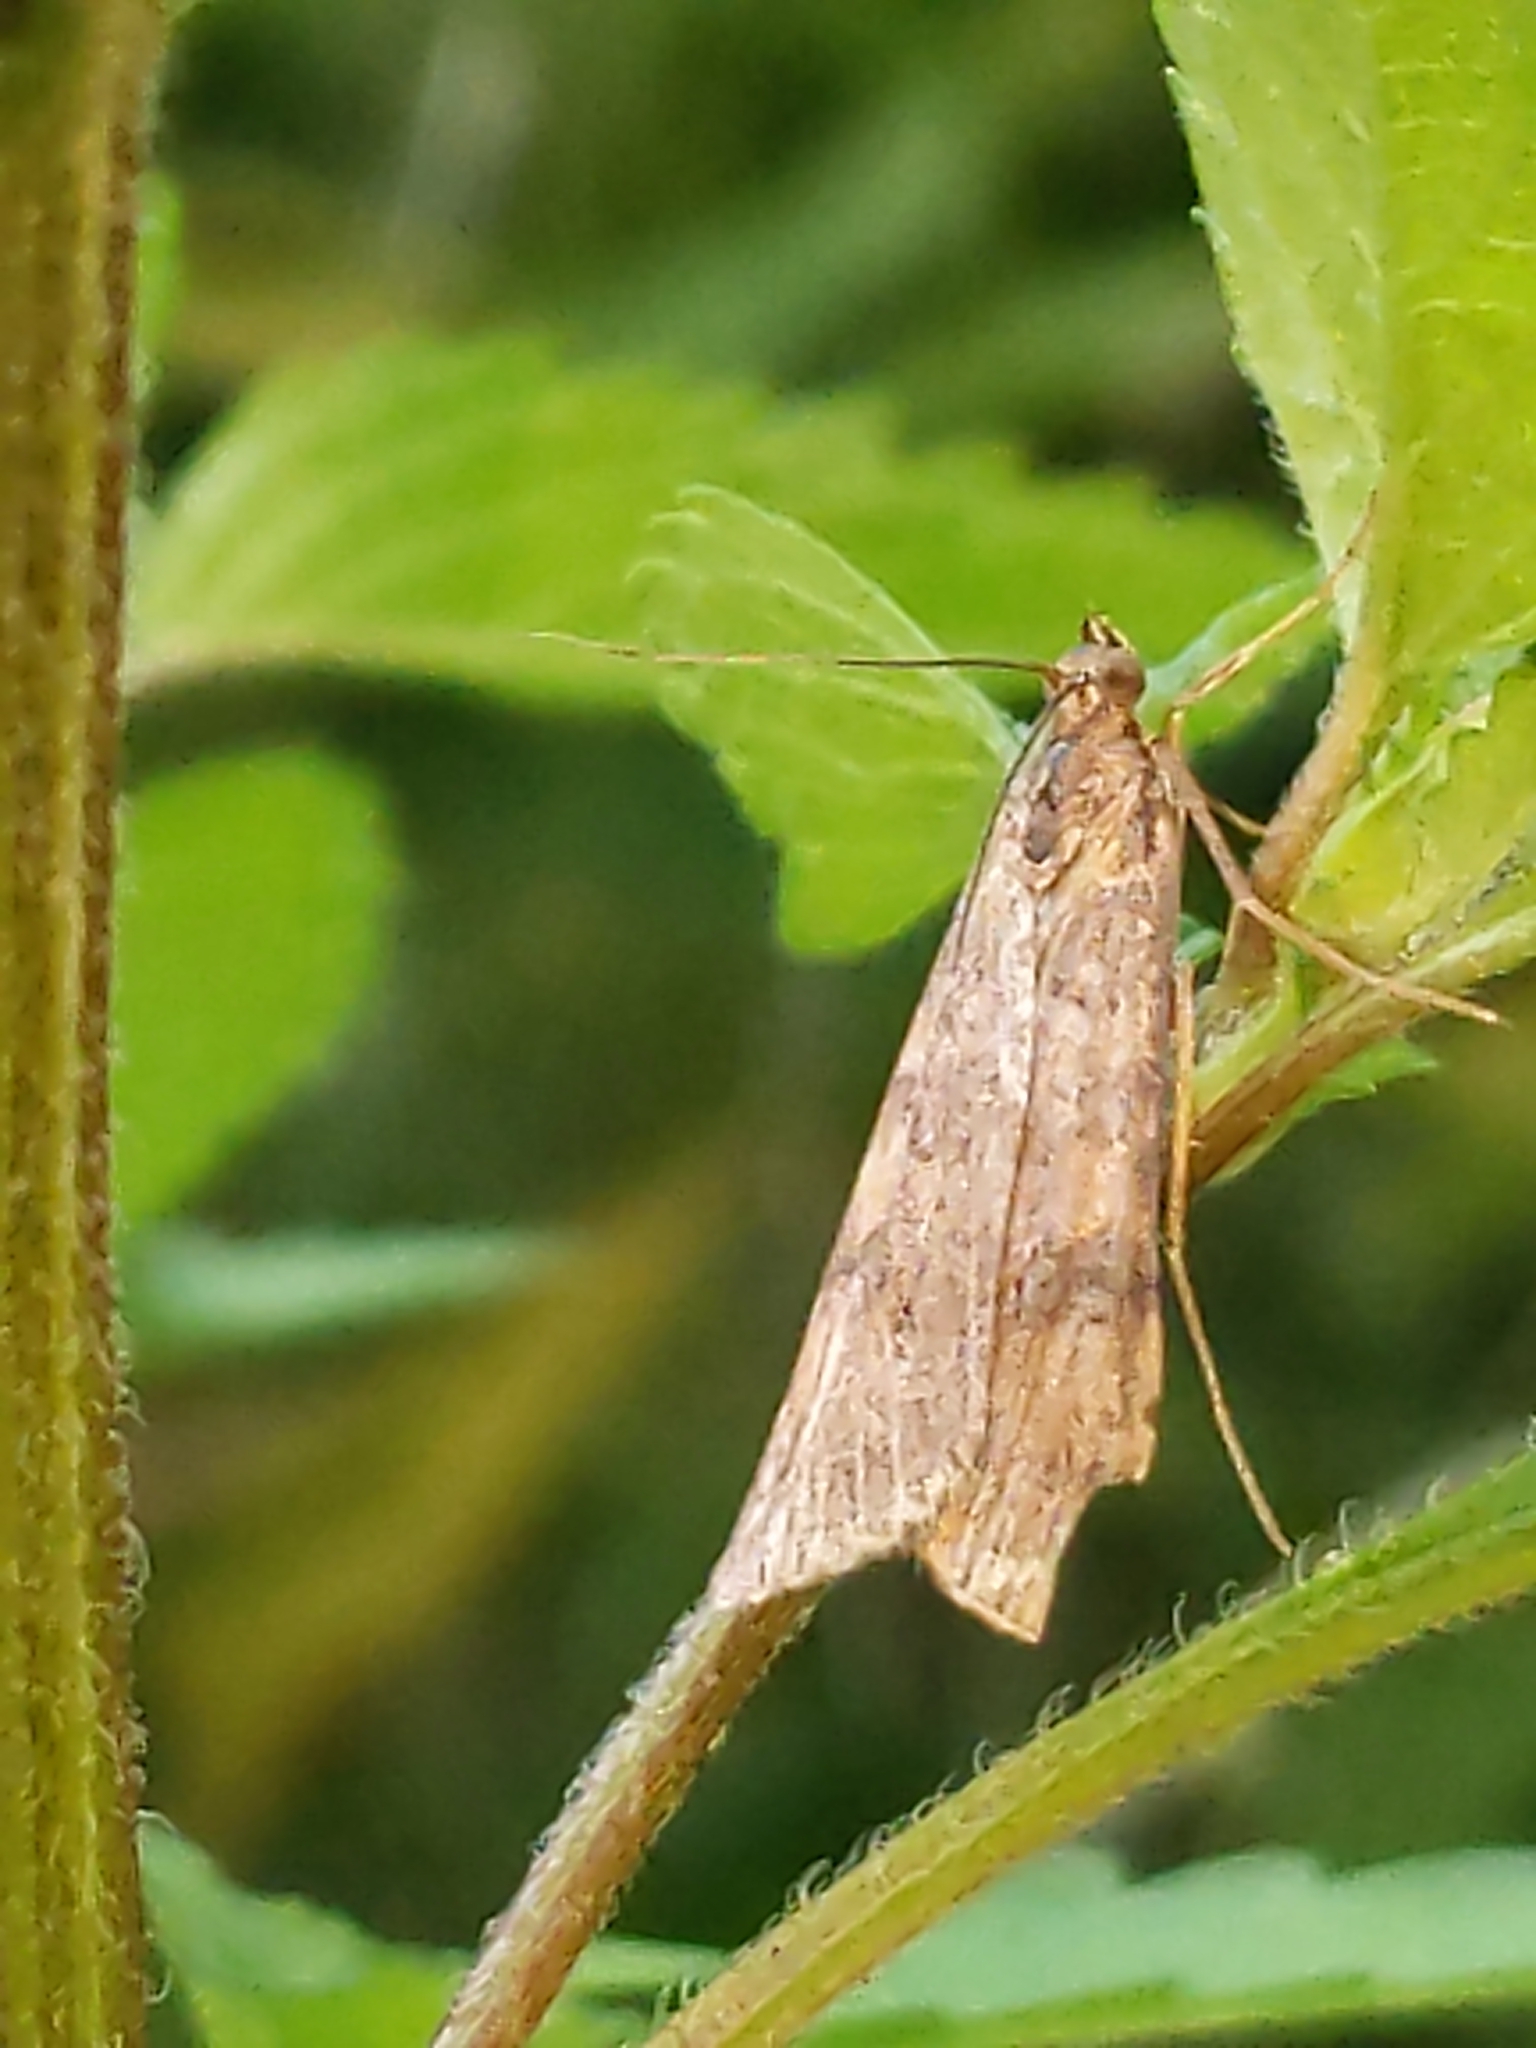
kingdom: Animalia
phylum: Arthropoda
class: Insecta
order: Lepidoptera
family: Crambidae
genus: Nomophila
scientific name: Nomophila nearctica
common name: American rush veneer
